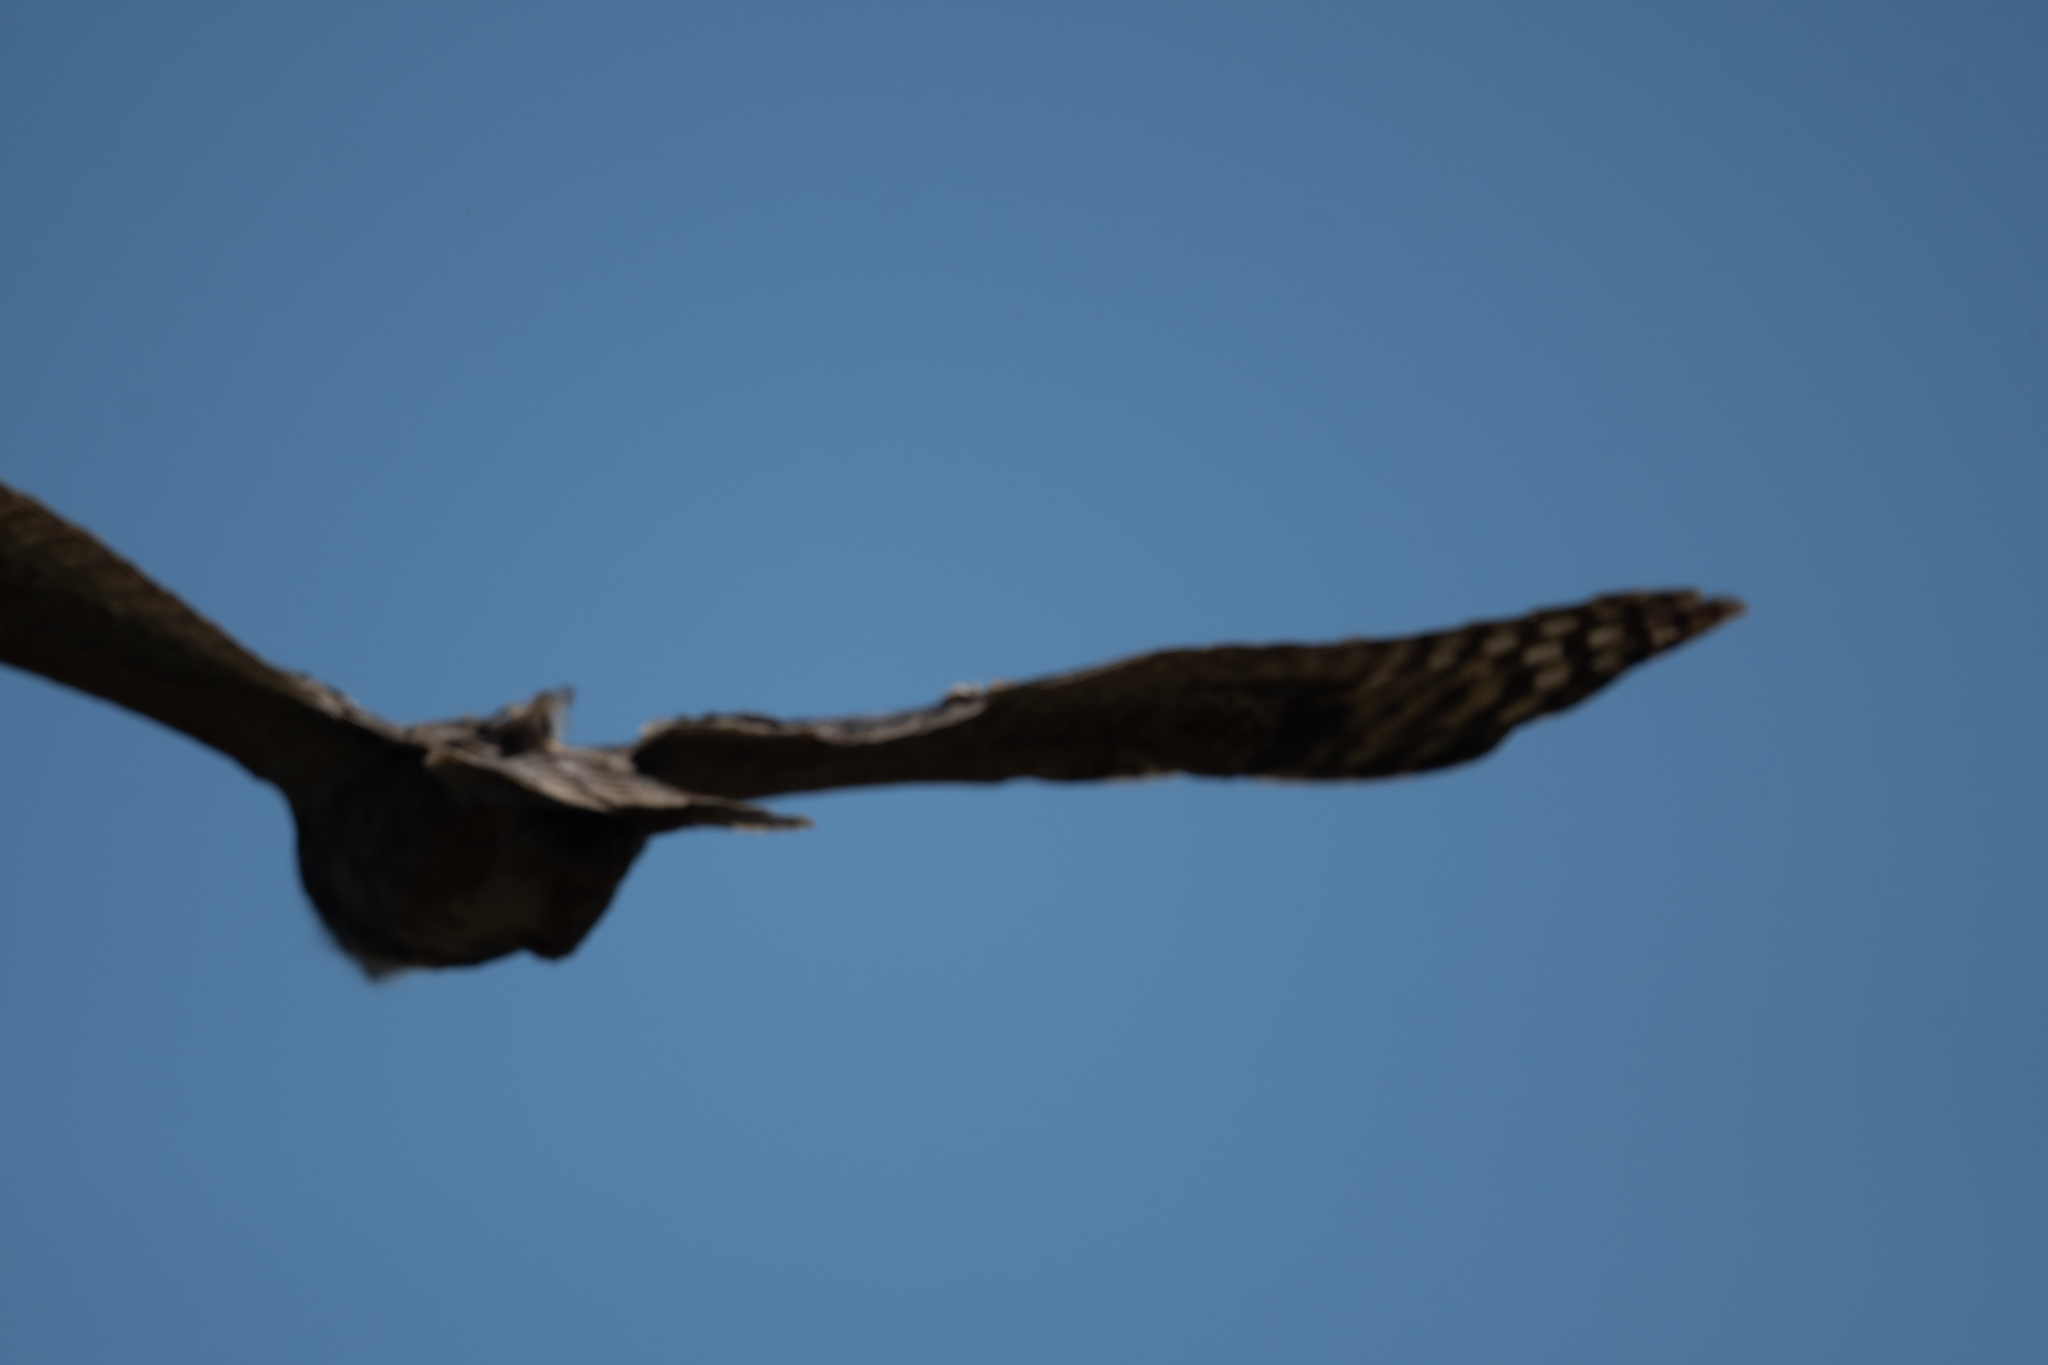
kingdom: Animalia
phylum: Chordata
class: Aves
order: Strigiformes
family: Strigidae
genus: Bubo
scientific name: Bubo virginianus
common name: Great horned owl
